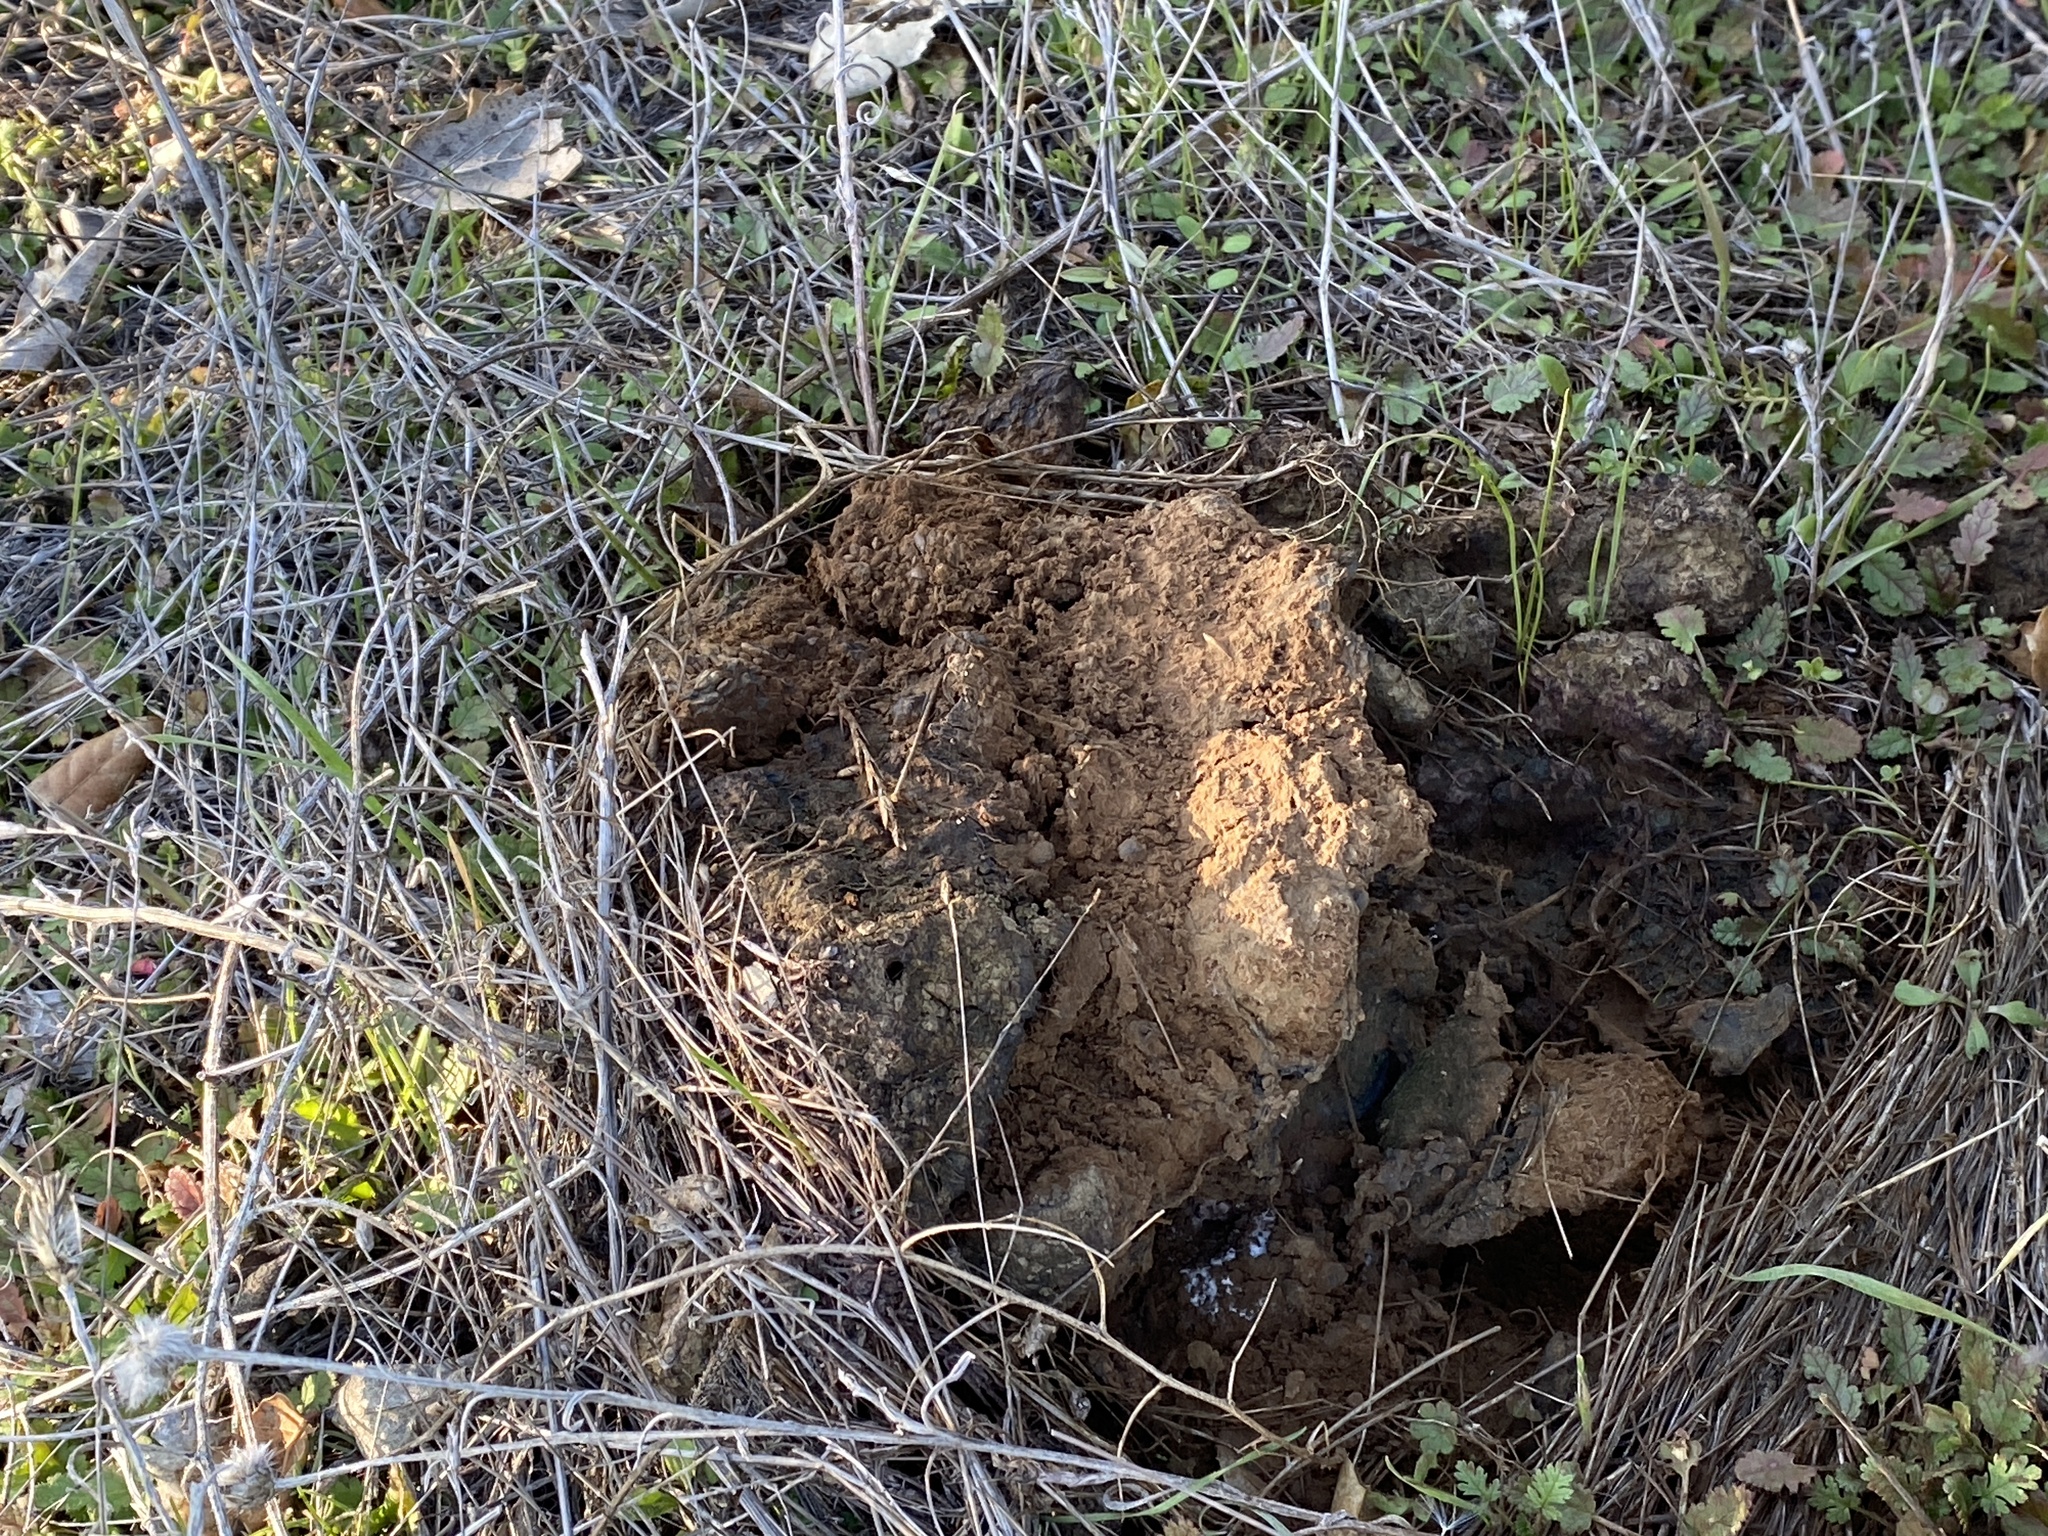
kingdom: Fungi
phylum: Basidiomycota
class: Agaricomycetes
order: Boletales
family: Sclerodermataceae
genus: Pisolithus
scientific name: Pisolithus tinctorius
